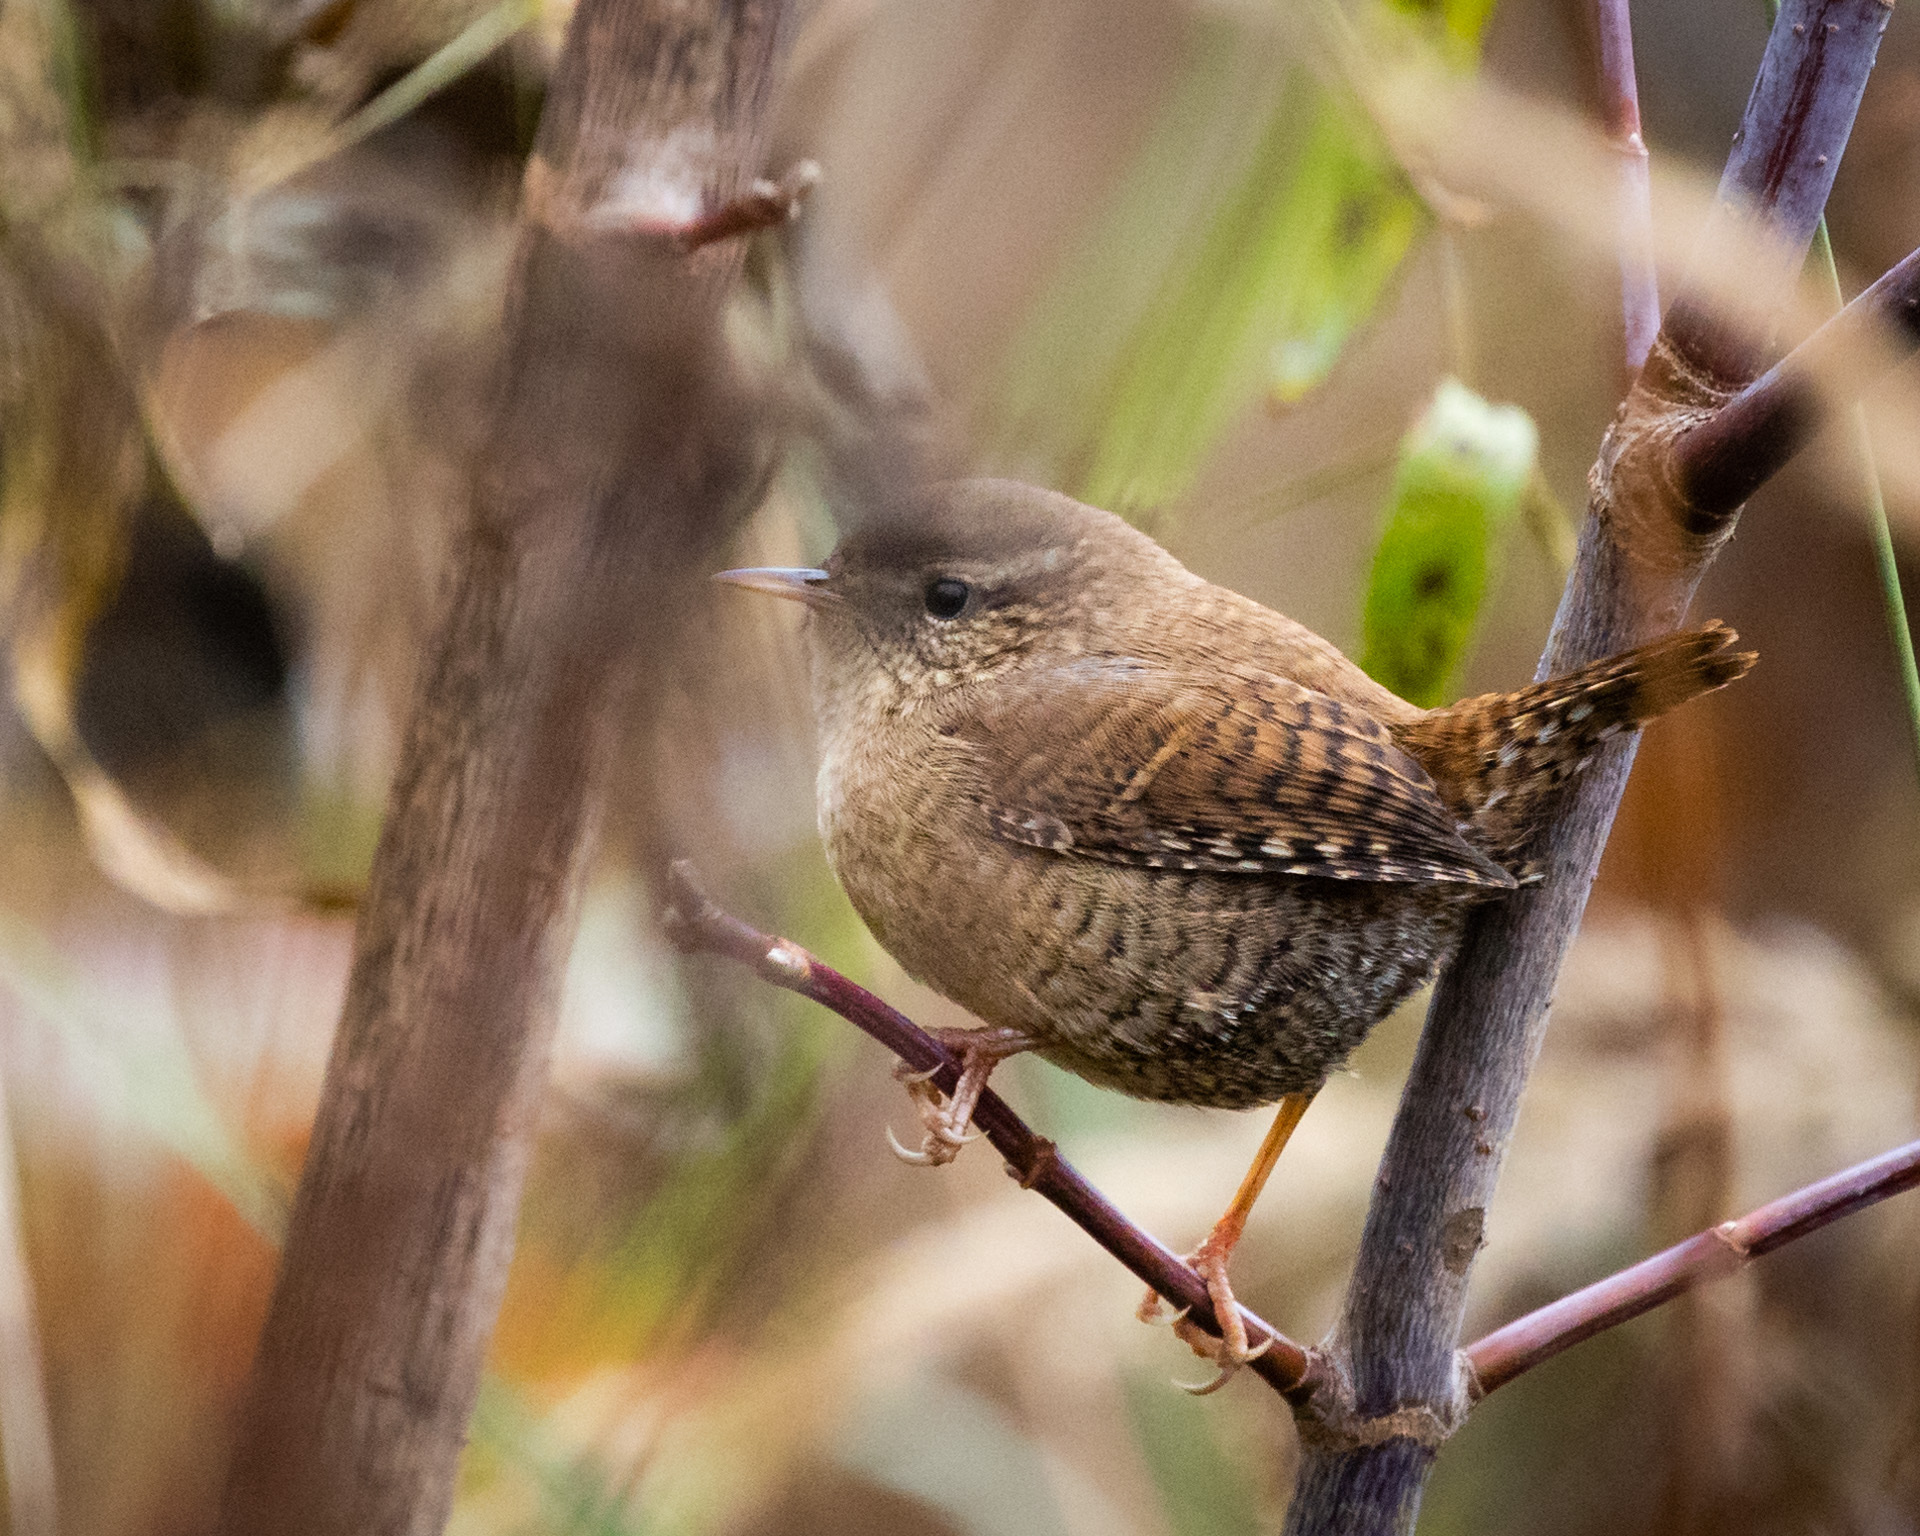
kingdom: Animalia
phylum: Chordata
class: Aves
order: Passeriformes
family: Troglodytidae
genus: Troglodytes
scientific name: Troglodytes troglodytes
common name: Eurasian wren
